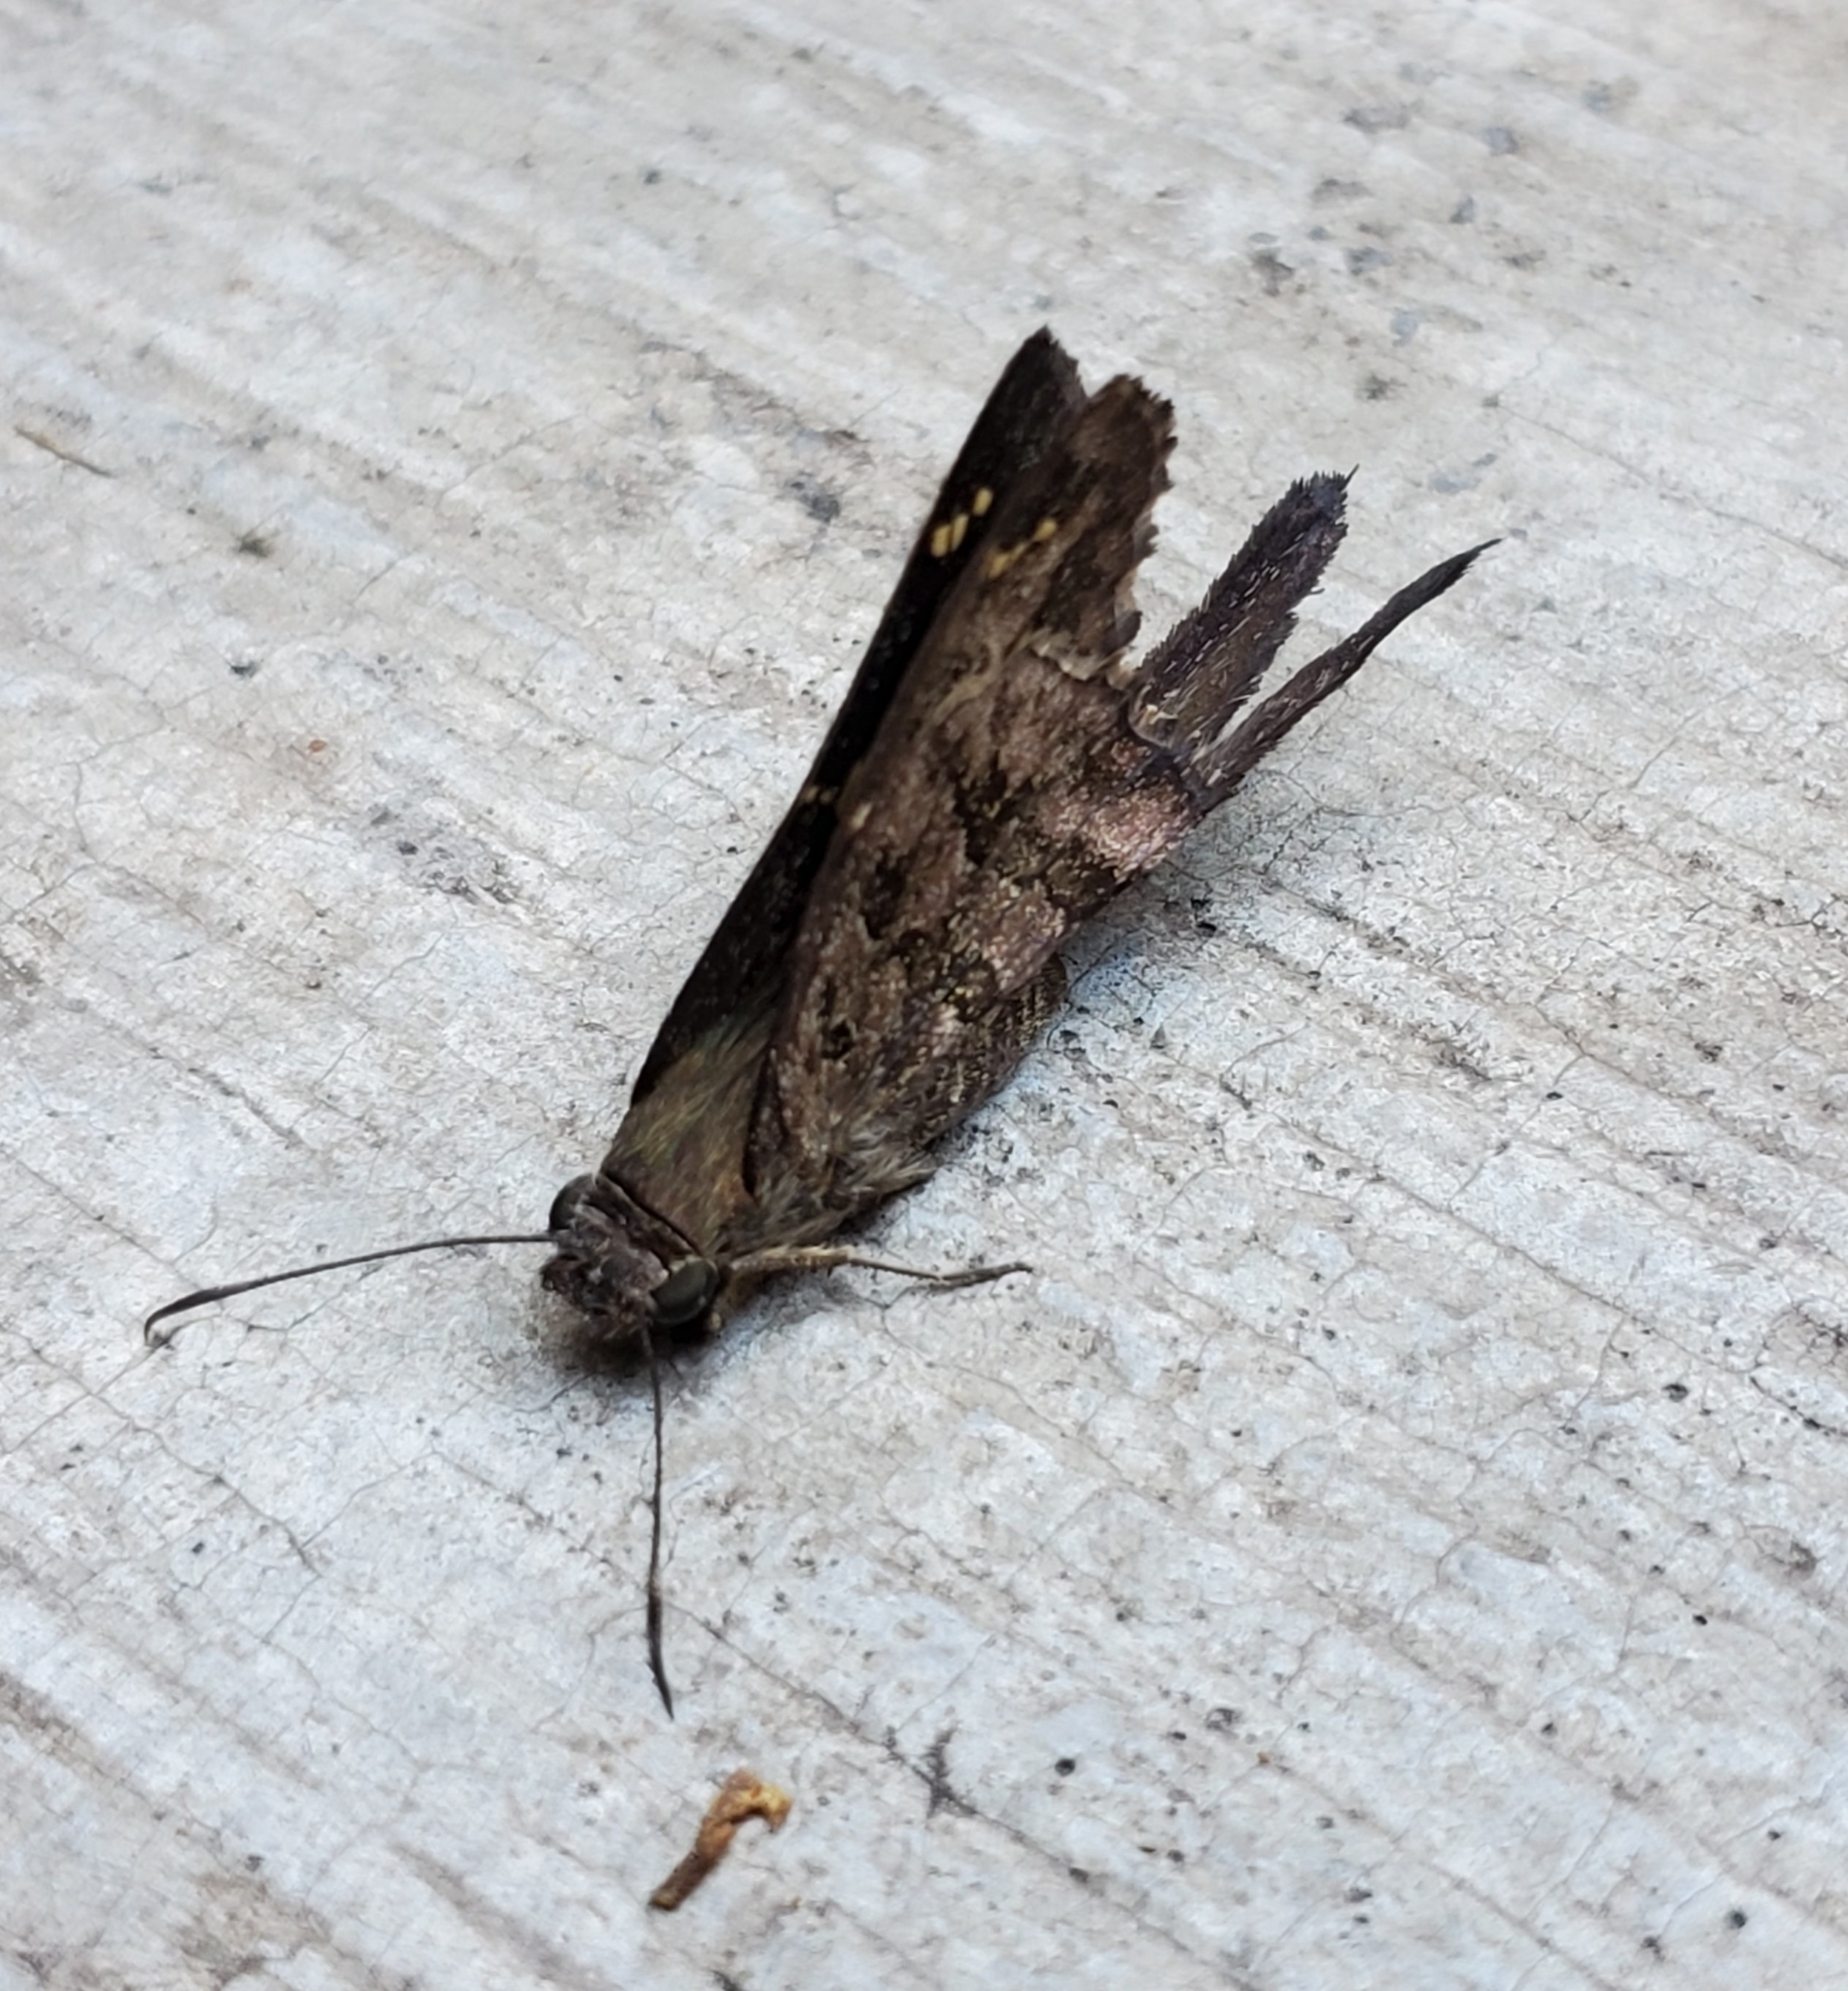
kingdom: Animalia
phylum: Arthropoda
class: Insecta
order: Lepidoptera
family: Hesperiidae
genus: Thorybes
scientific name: Thorybes
